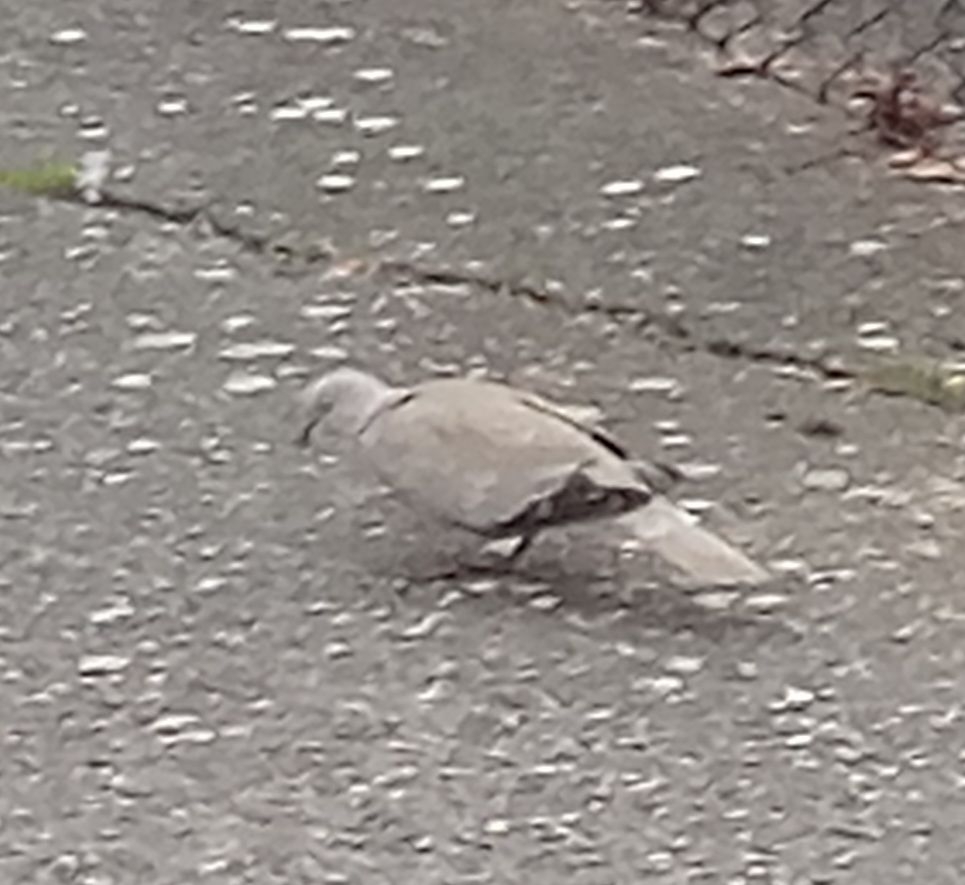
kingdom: Animalia
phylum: Chordata
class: Aves
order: Columbiformes
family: Columbidae
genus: Streptopelia
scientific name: Streptopelia decaocto
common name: Eurasian collared dove
